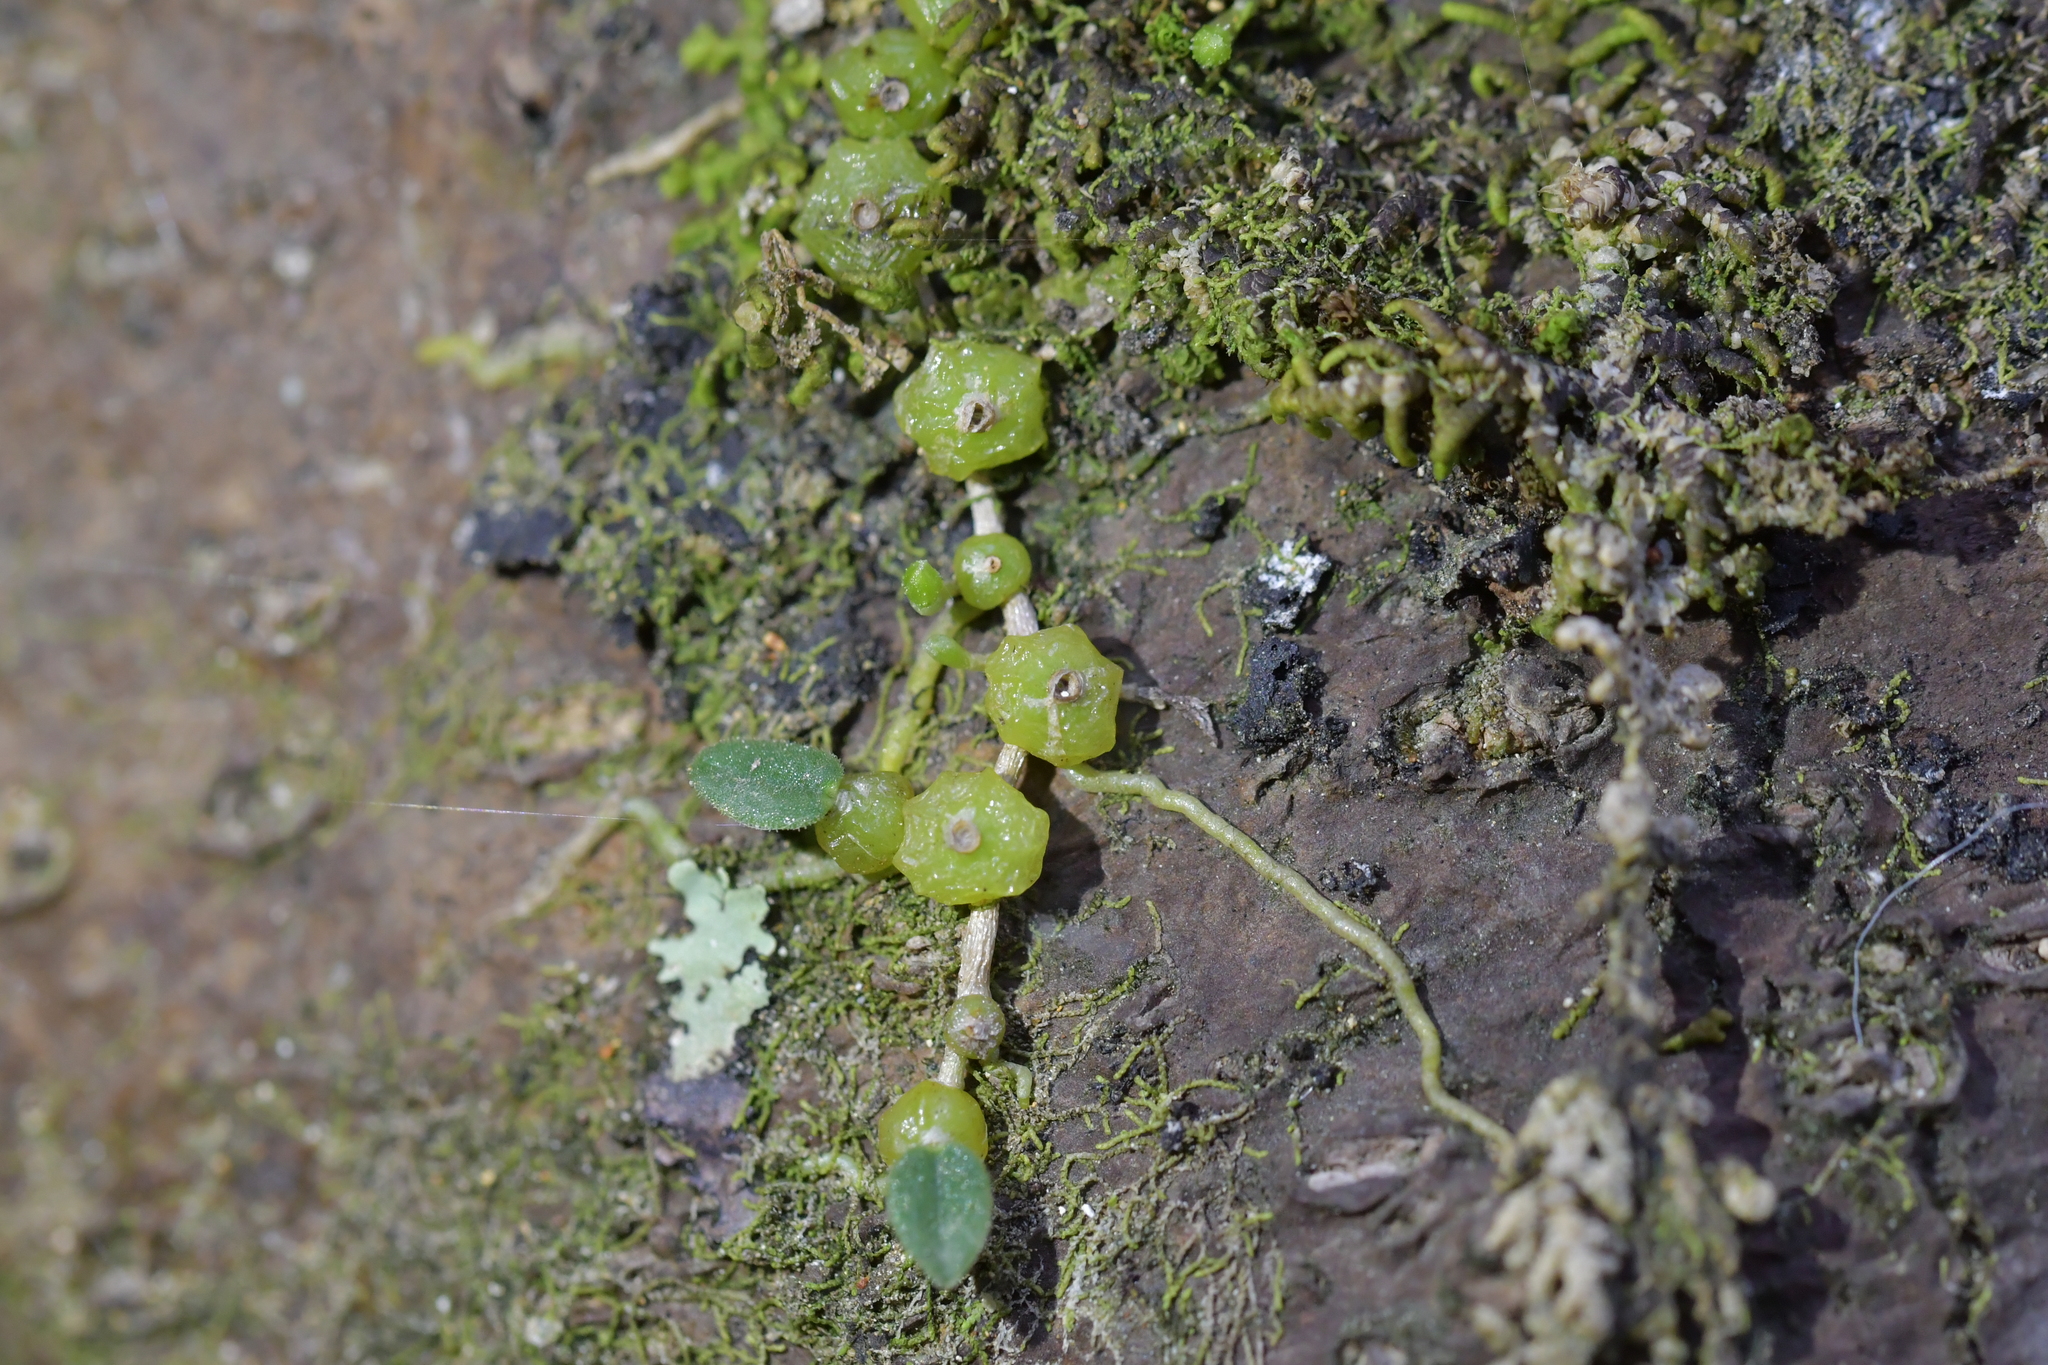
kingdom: Plantae
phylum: Tracheophyta
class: Liliopsida
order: Asparagales
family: Orchidaceae
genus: Bulbophyllum
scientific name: Bulbophyllum pygmaeum
